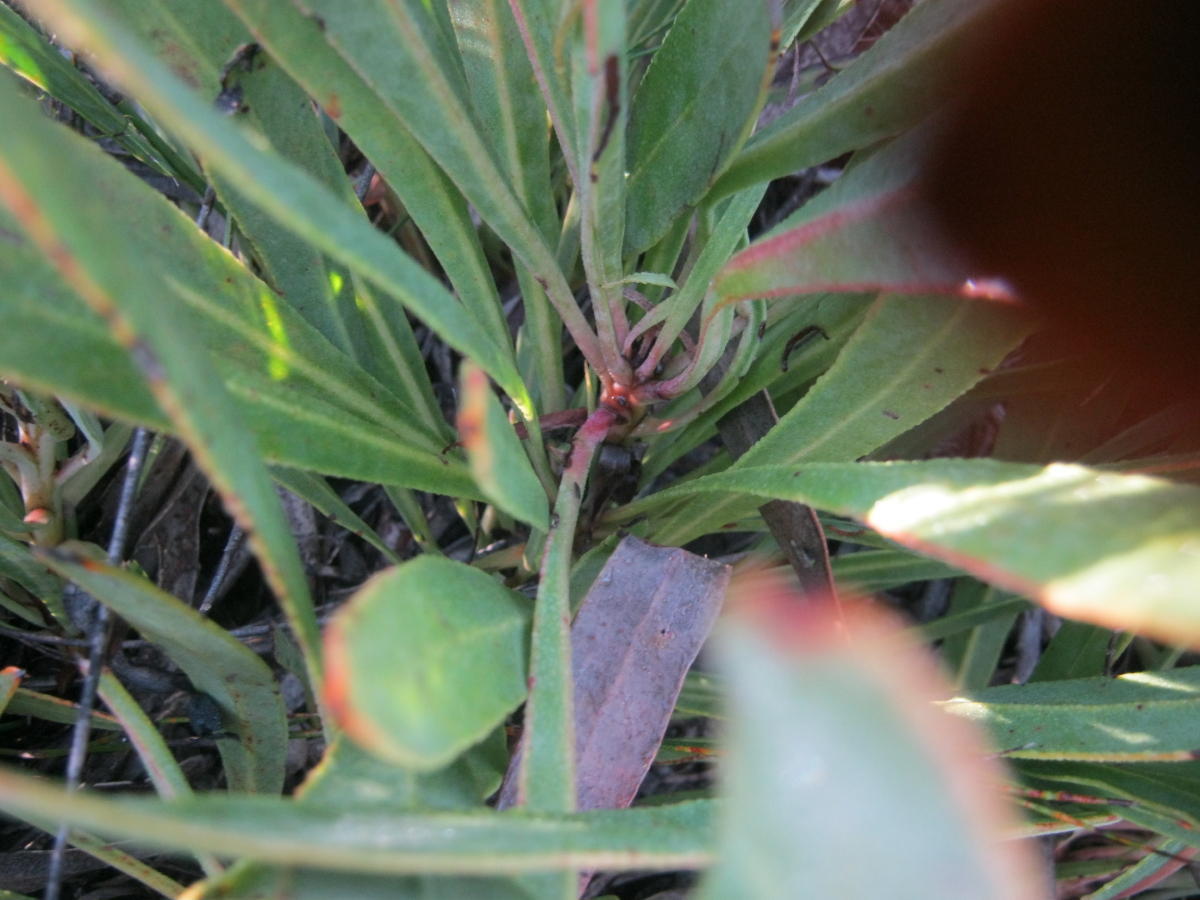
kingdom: Plantae
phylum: Tracheophyta
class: Magnoliopsida
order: Proteales
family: Proteaceae
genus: Protea
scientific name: Protea vogtsiae
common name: Kouga sugarbush
